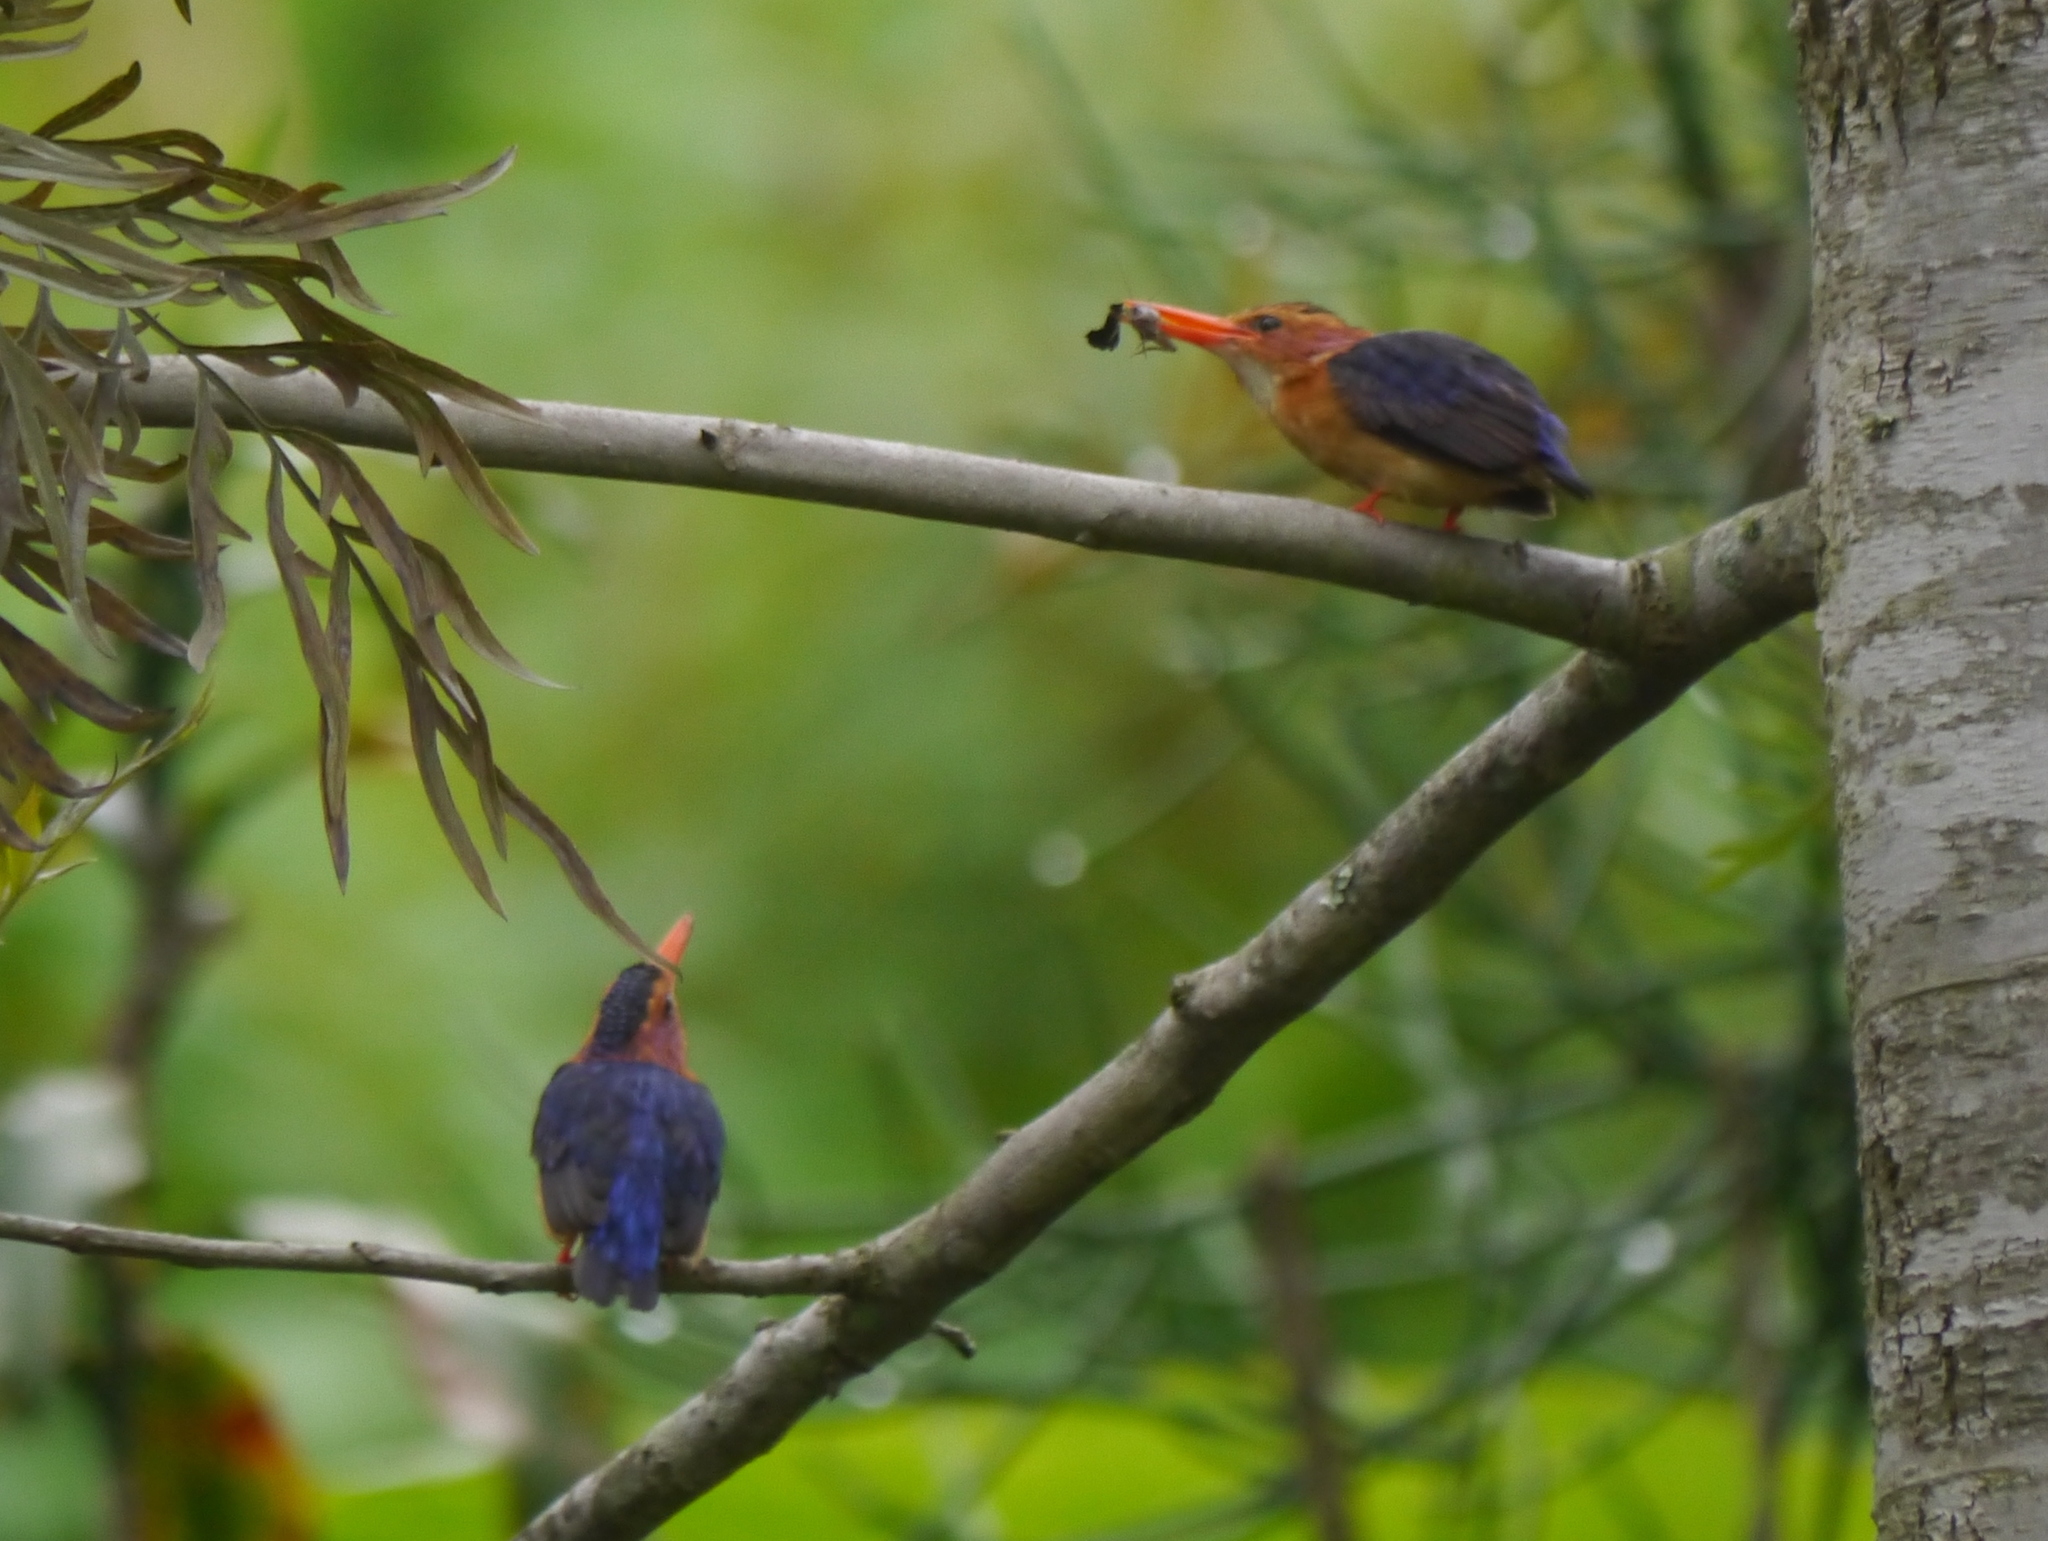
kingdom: Animalia
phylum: Chordata
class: Aves
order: Coraciiformes
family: Alcedinidae
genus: Ispidina
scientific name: Ispidina picta
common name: African pygmy-kingfisher
